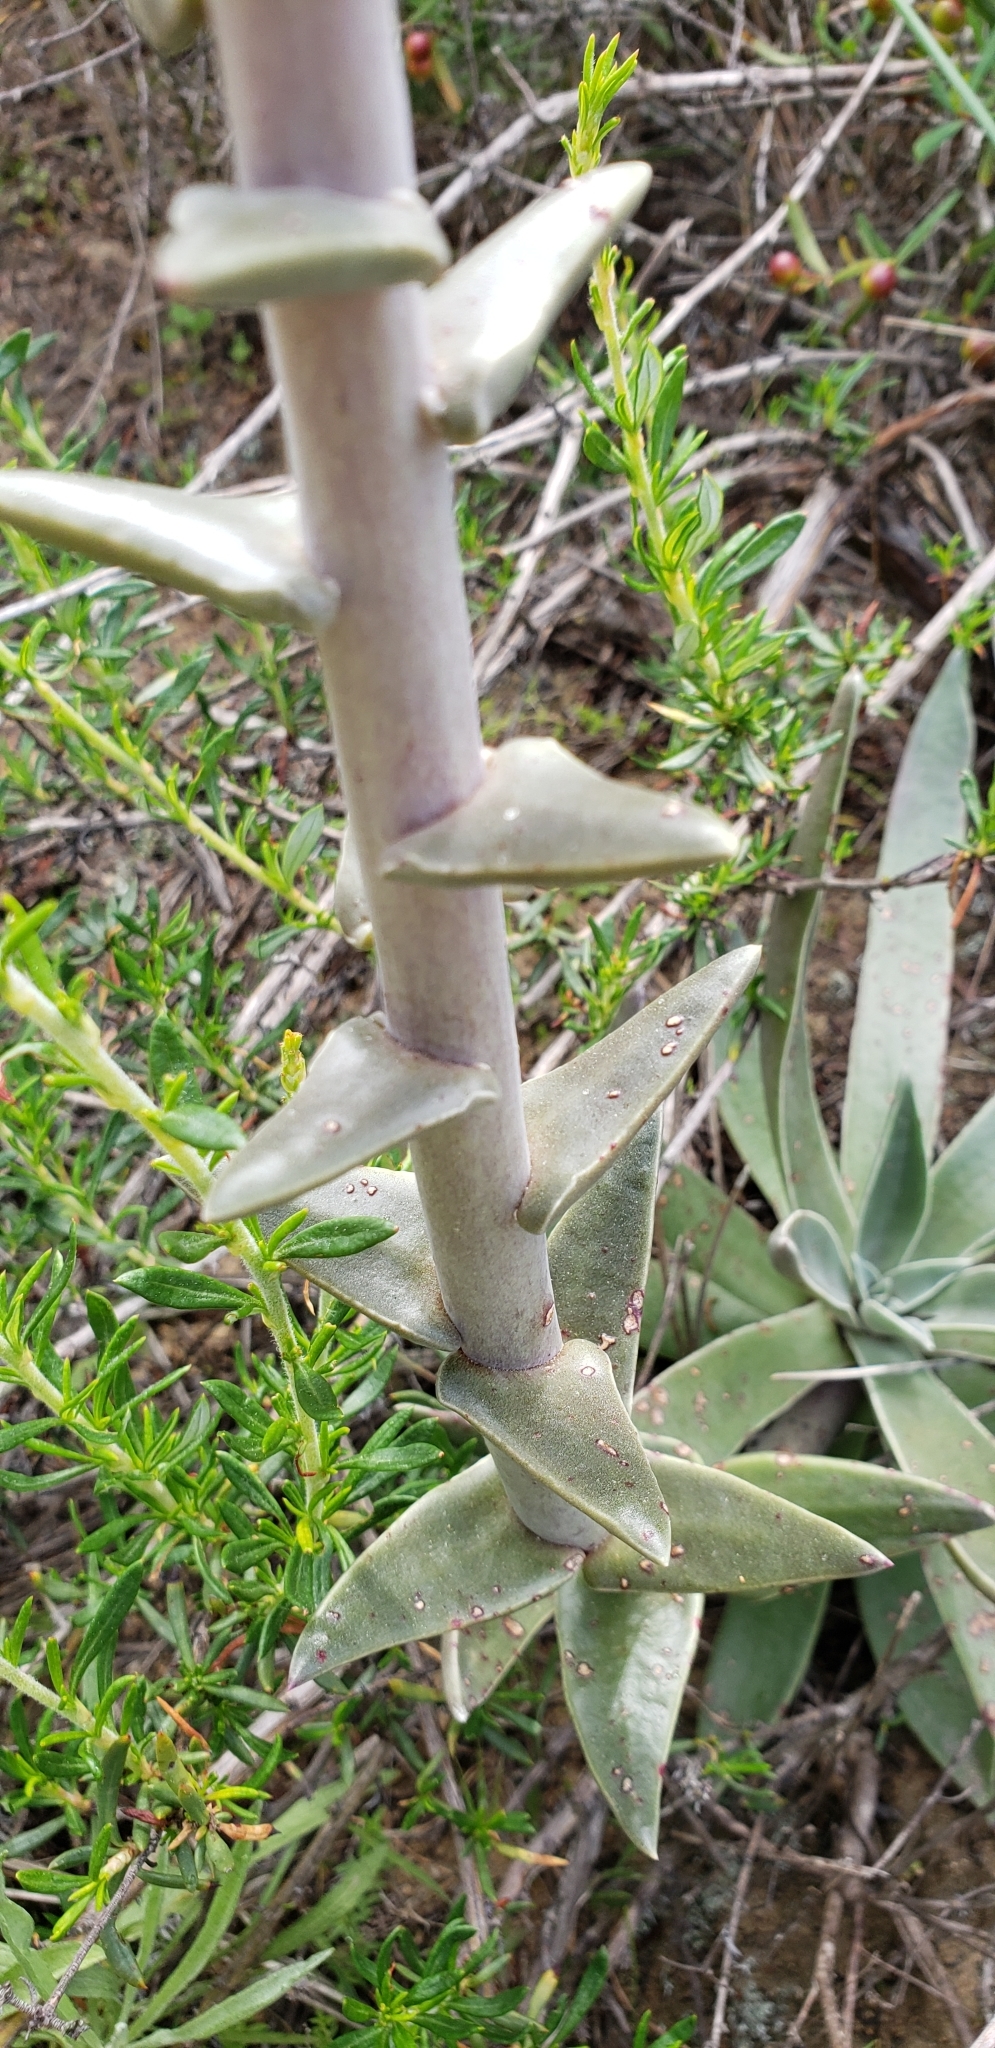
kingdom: Plantae
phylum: Tracheophyta
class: Magnoliopsida
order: Saxifragales
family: Crassulaceae
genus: Dudleya
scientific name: Dudleya lanceolata
